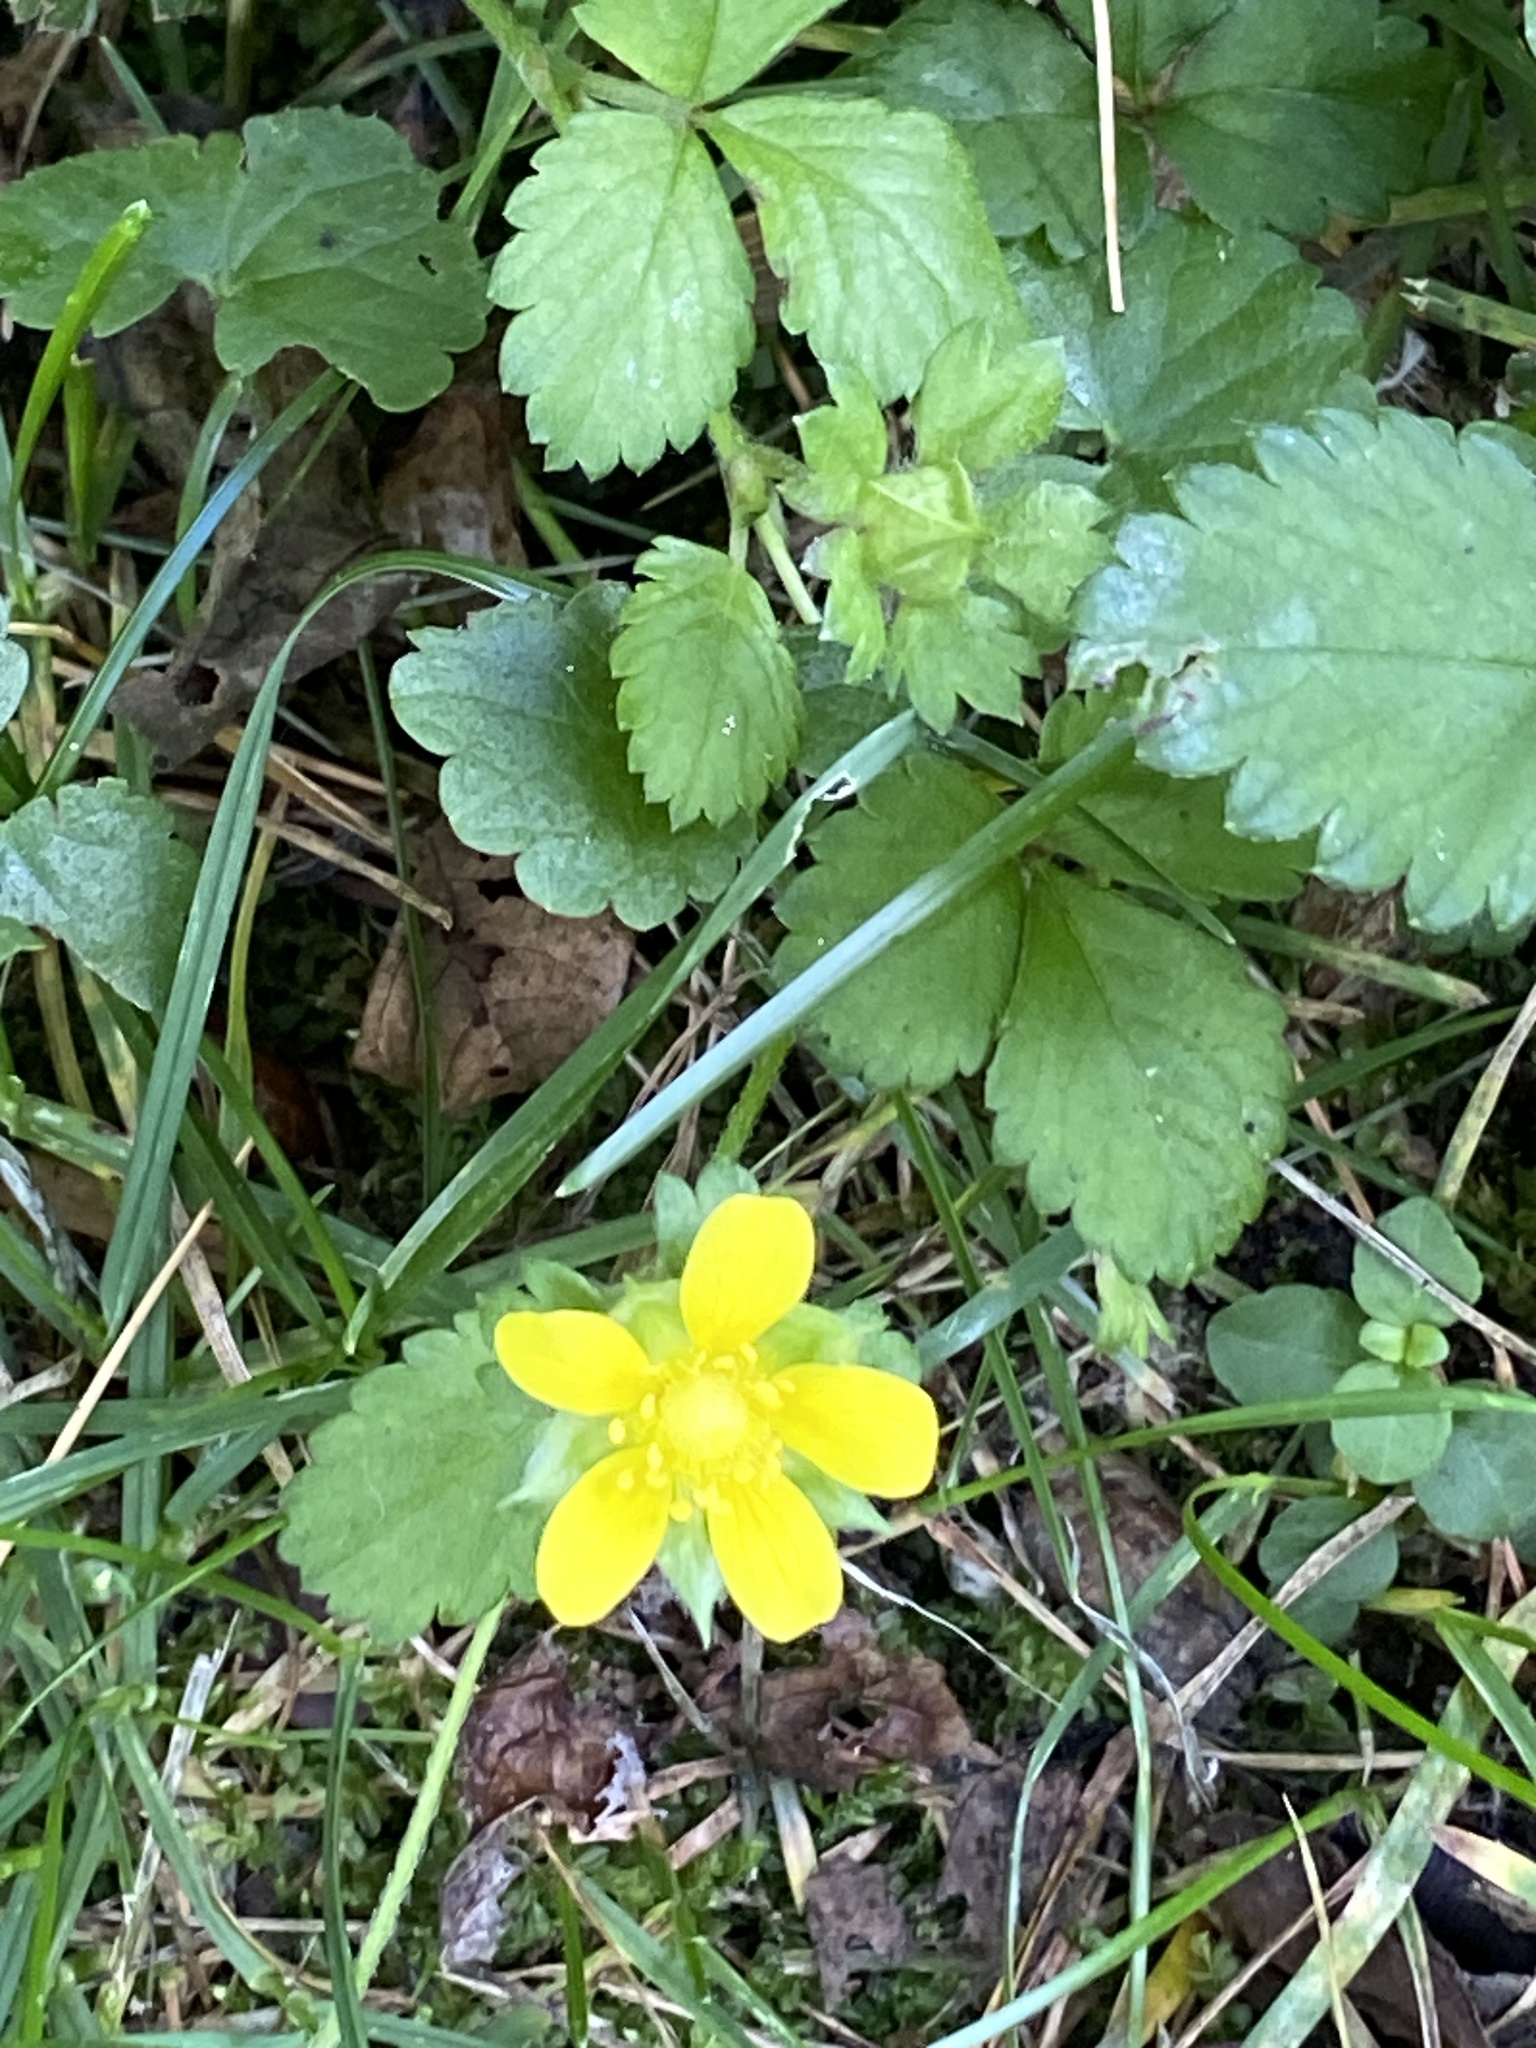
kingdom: Plantae
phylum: Tracheophyta
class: Magnoliopsida
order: Rosales
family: Rosaceae
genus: Potentilla
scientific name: Potentilla indica
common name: Yellow-flowered strawberry
